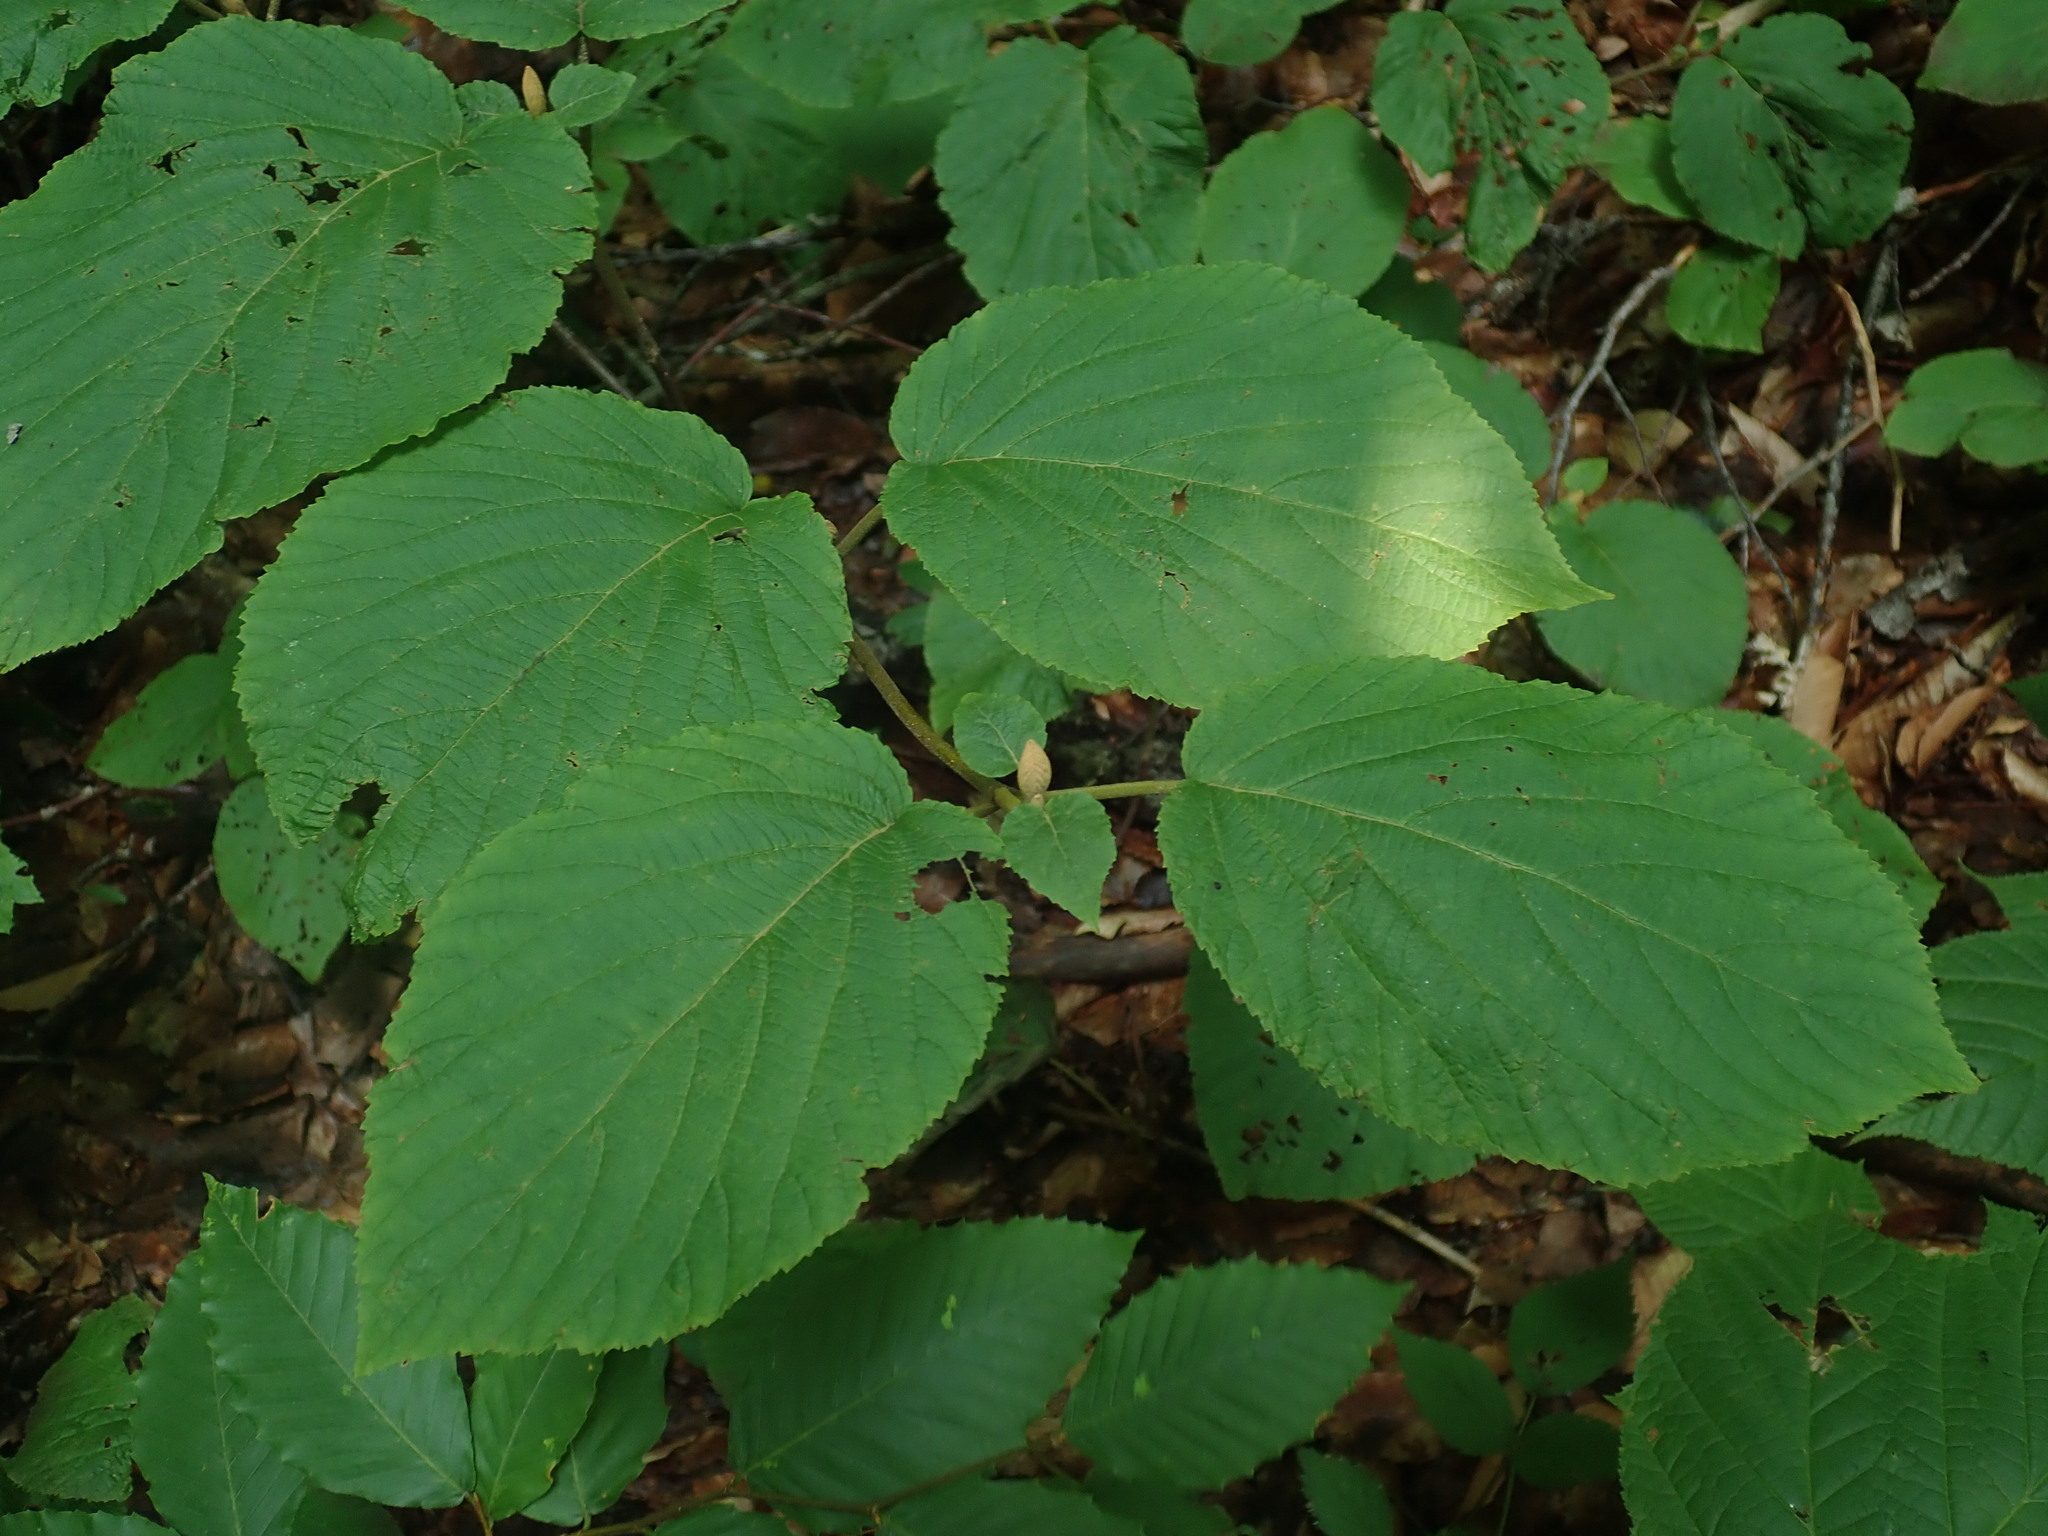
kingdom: Plantae
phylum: Tracheophyta
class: Magnoliopsida
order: Dipsacales
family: Viburnaceae
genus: Viburnum
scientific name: Viburnum lantanoides
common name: Hobblebush
